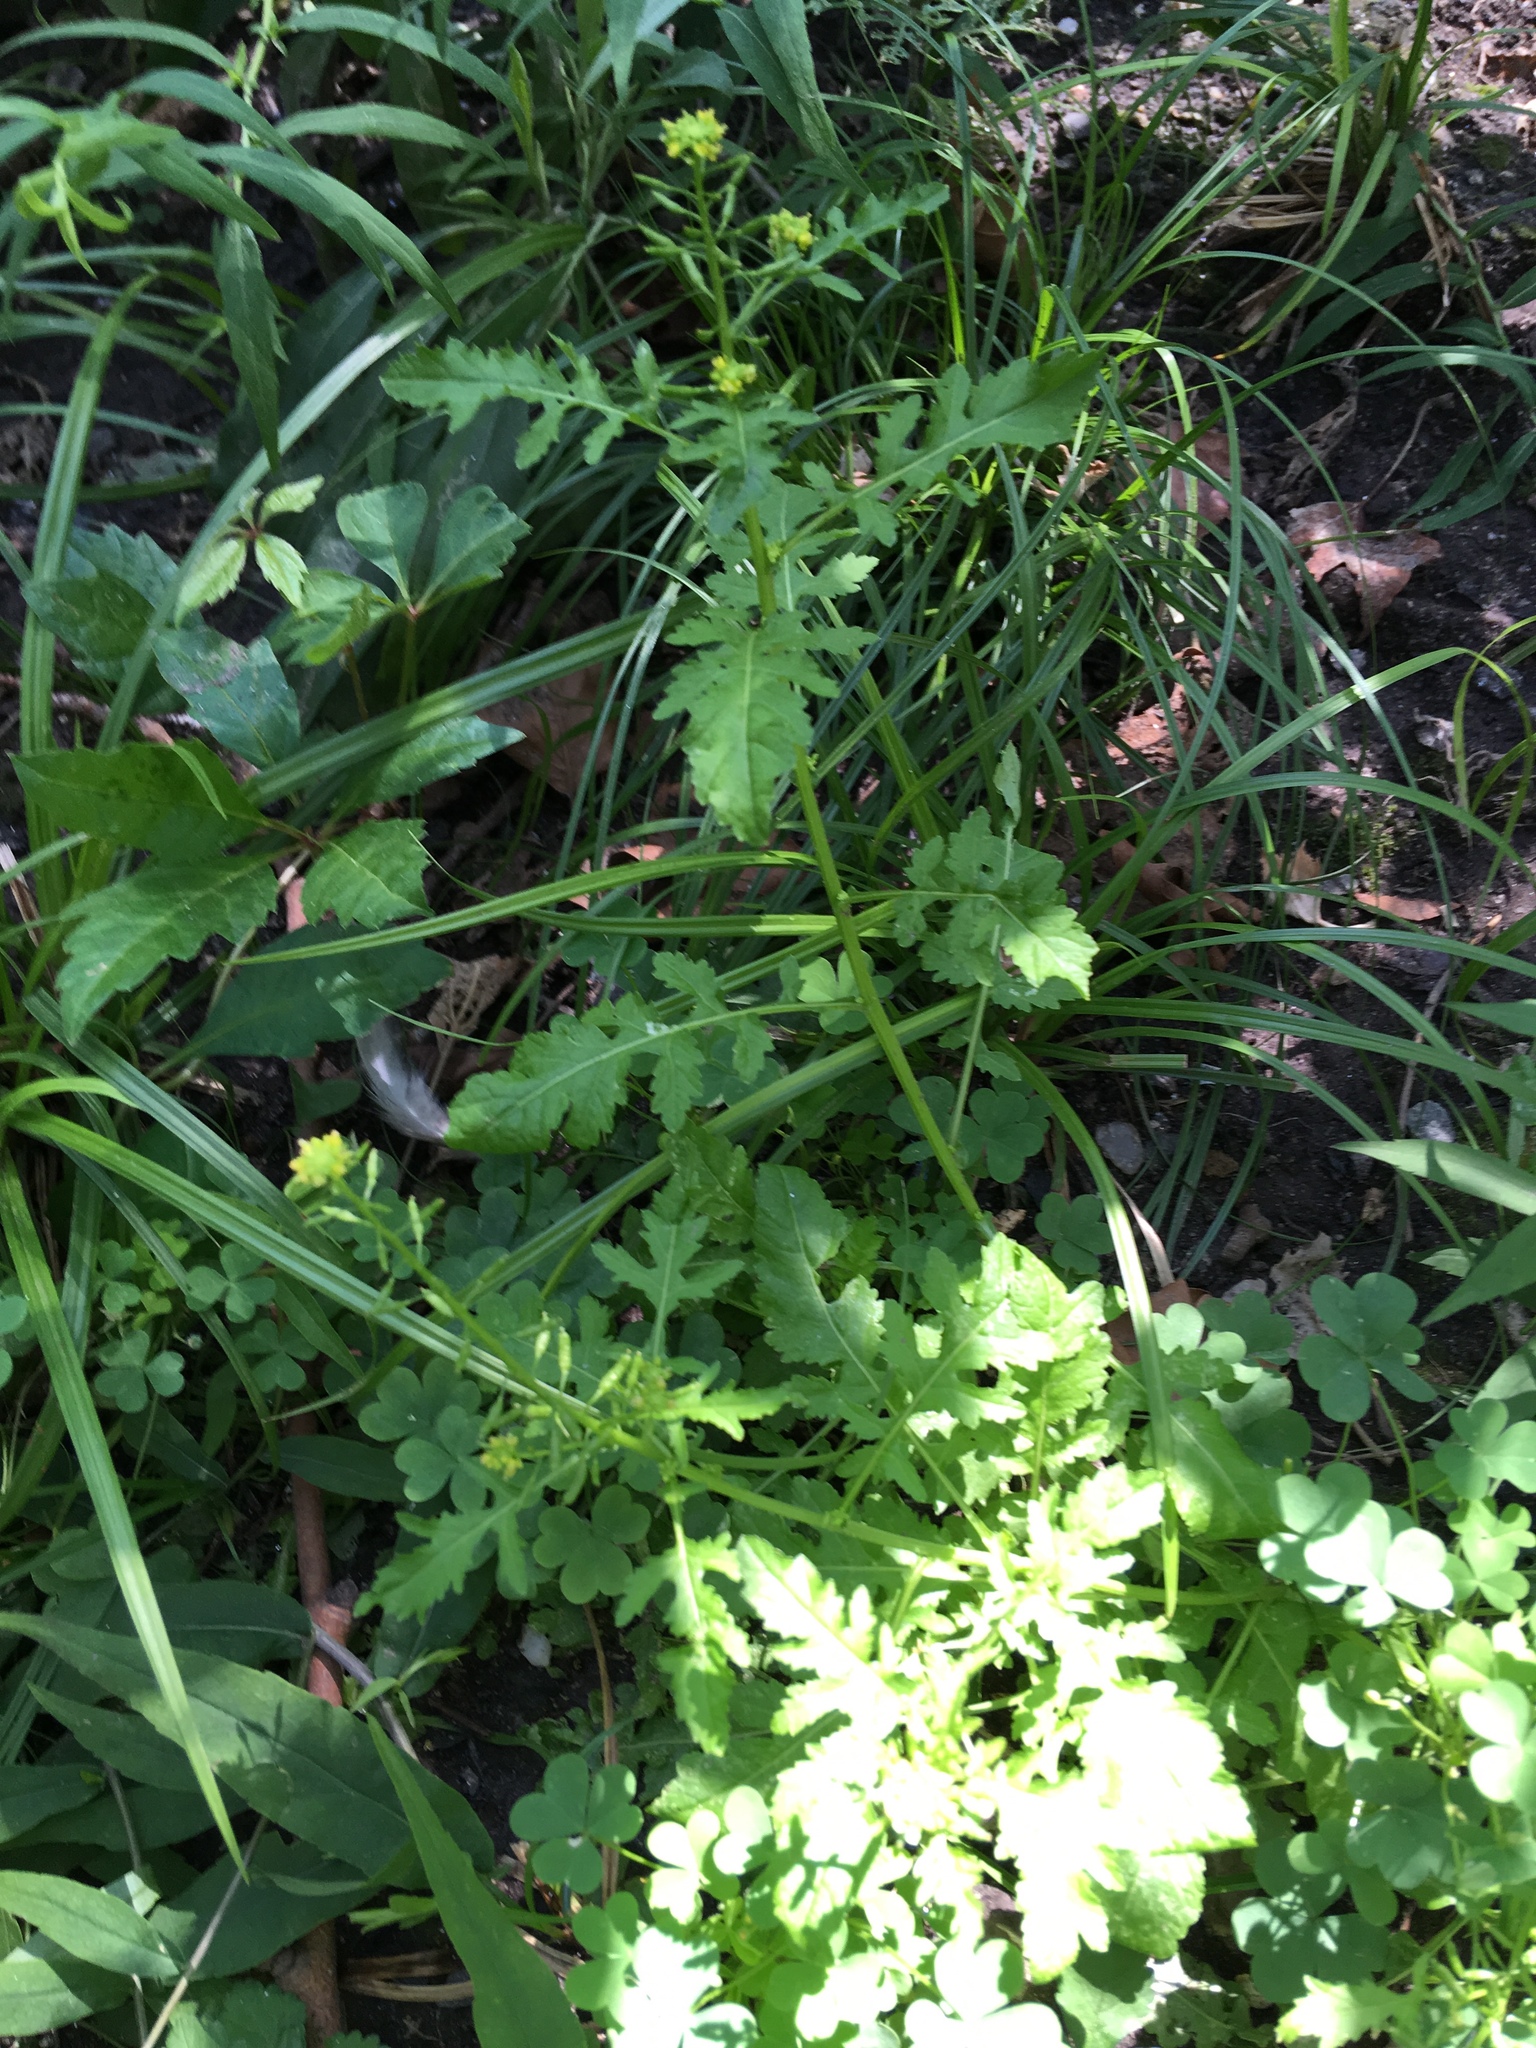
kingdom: Plantae
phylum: Tracheophyta
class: Magnoliopsida
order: Brassicales
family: Brassicaceae
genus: Rorippa
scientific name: Rorippa palustris
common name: Marsh yellow-cress
